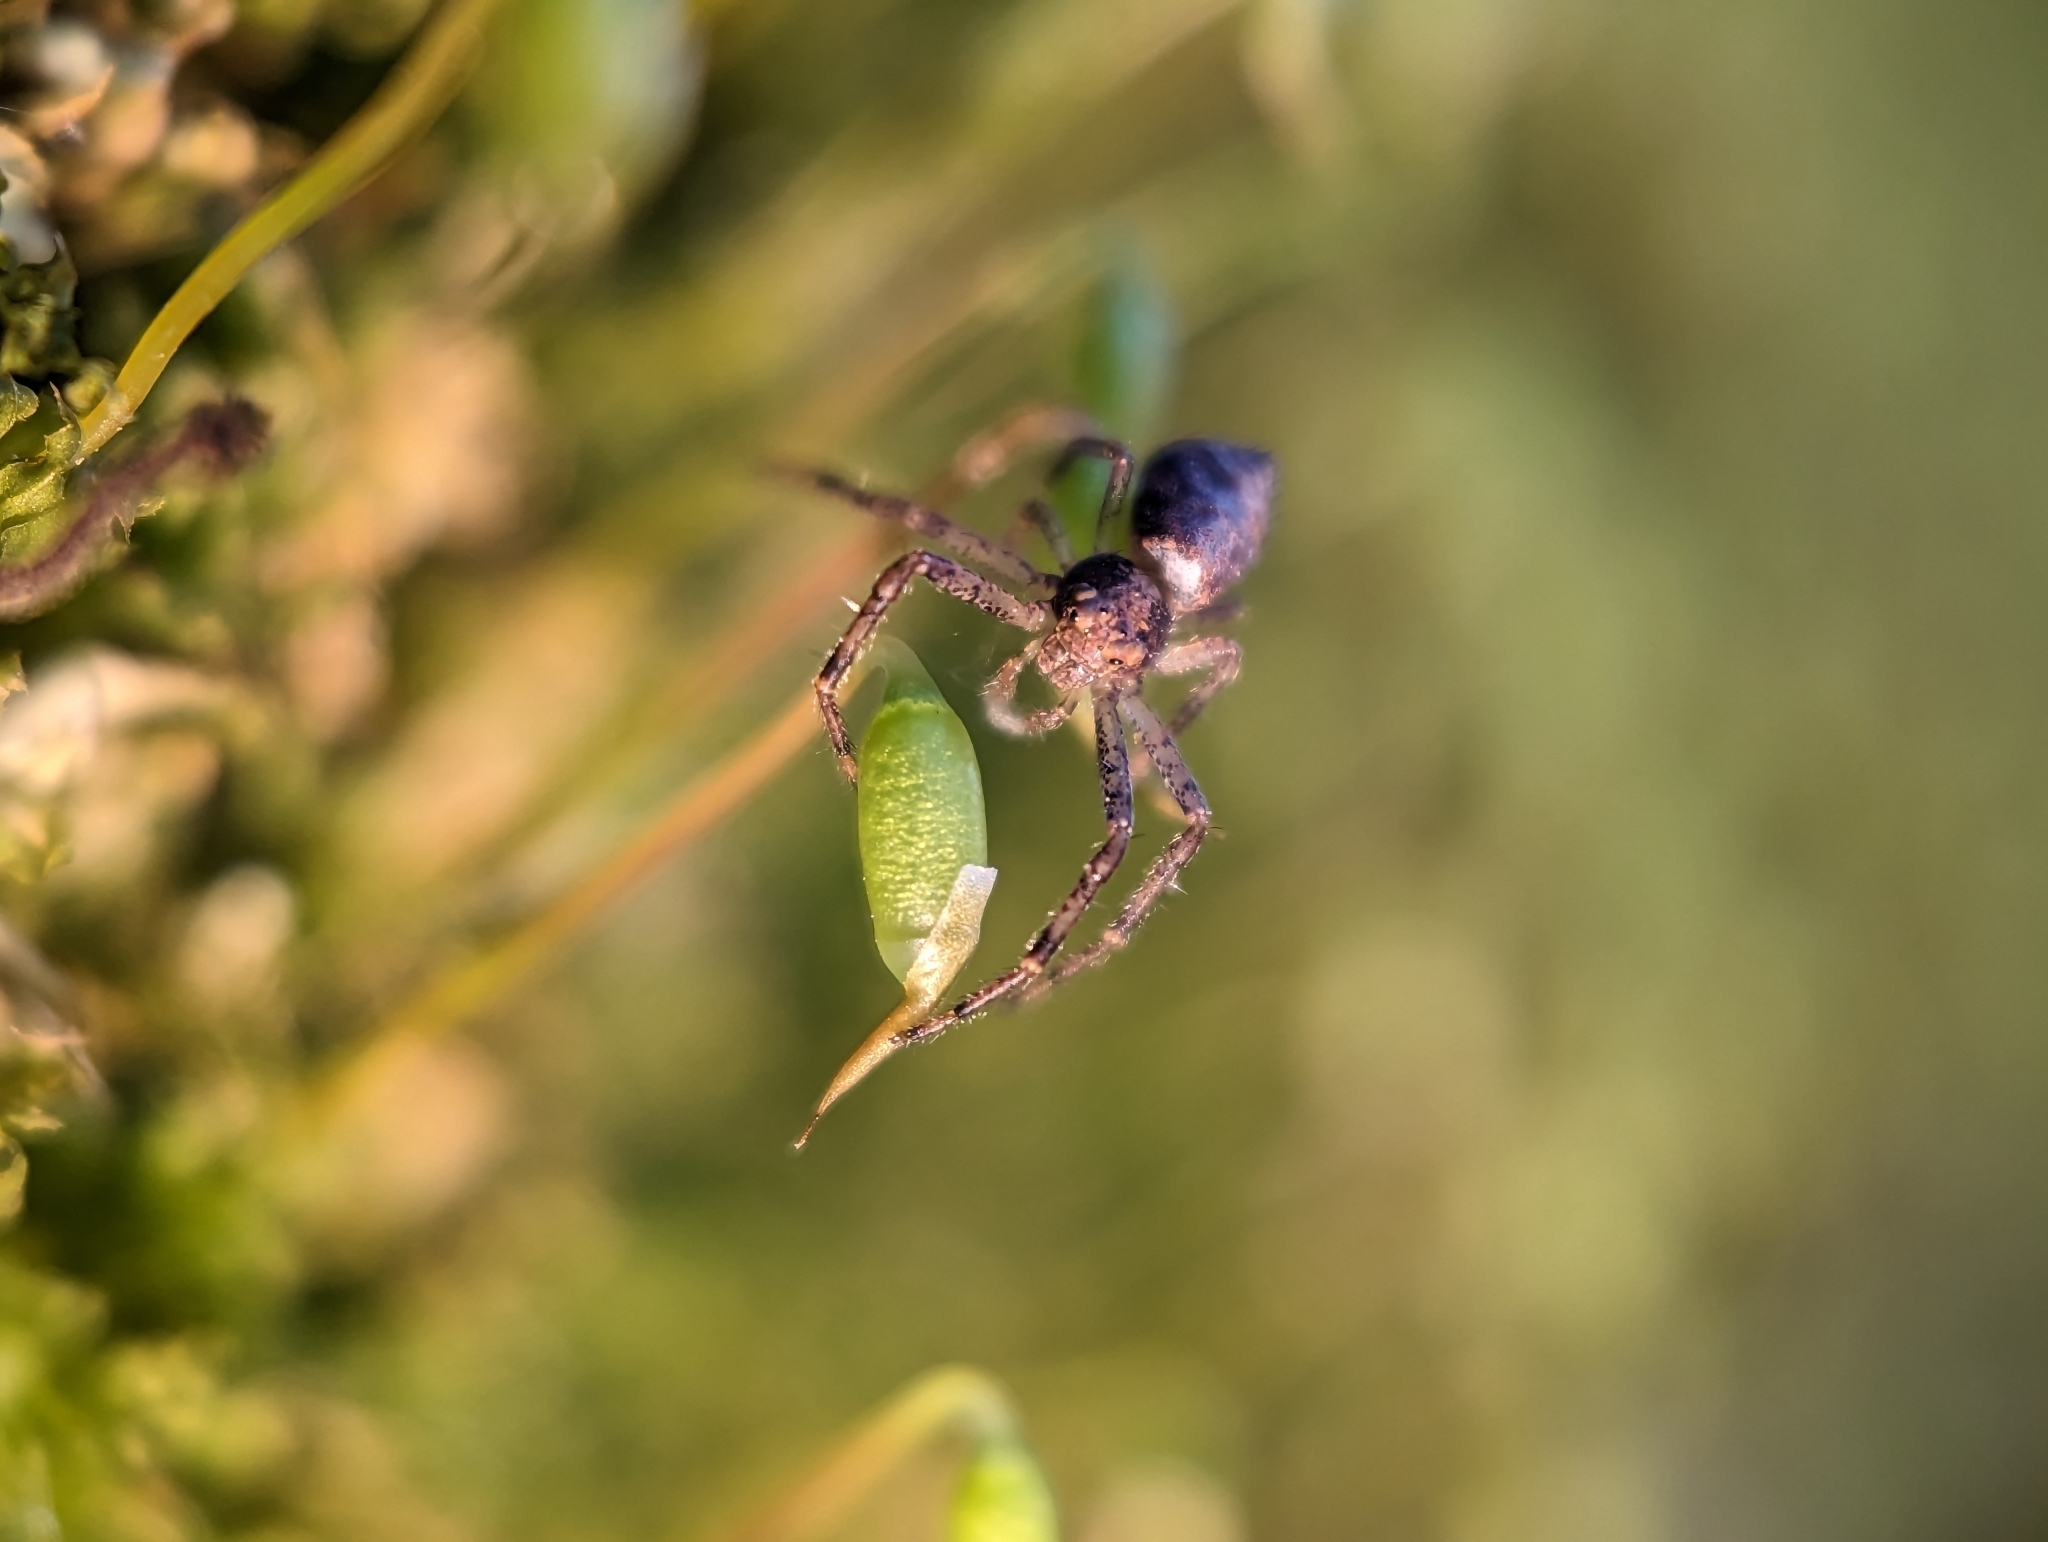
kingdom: Animalia
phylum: Arthropoda
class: Arachnida
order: Araneae
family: Thomisidae
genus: Tmarus
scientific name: Tmarus angulatus
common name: Tuberculated crab spider
